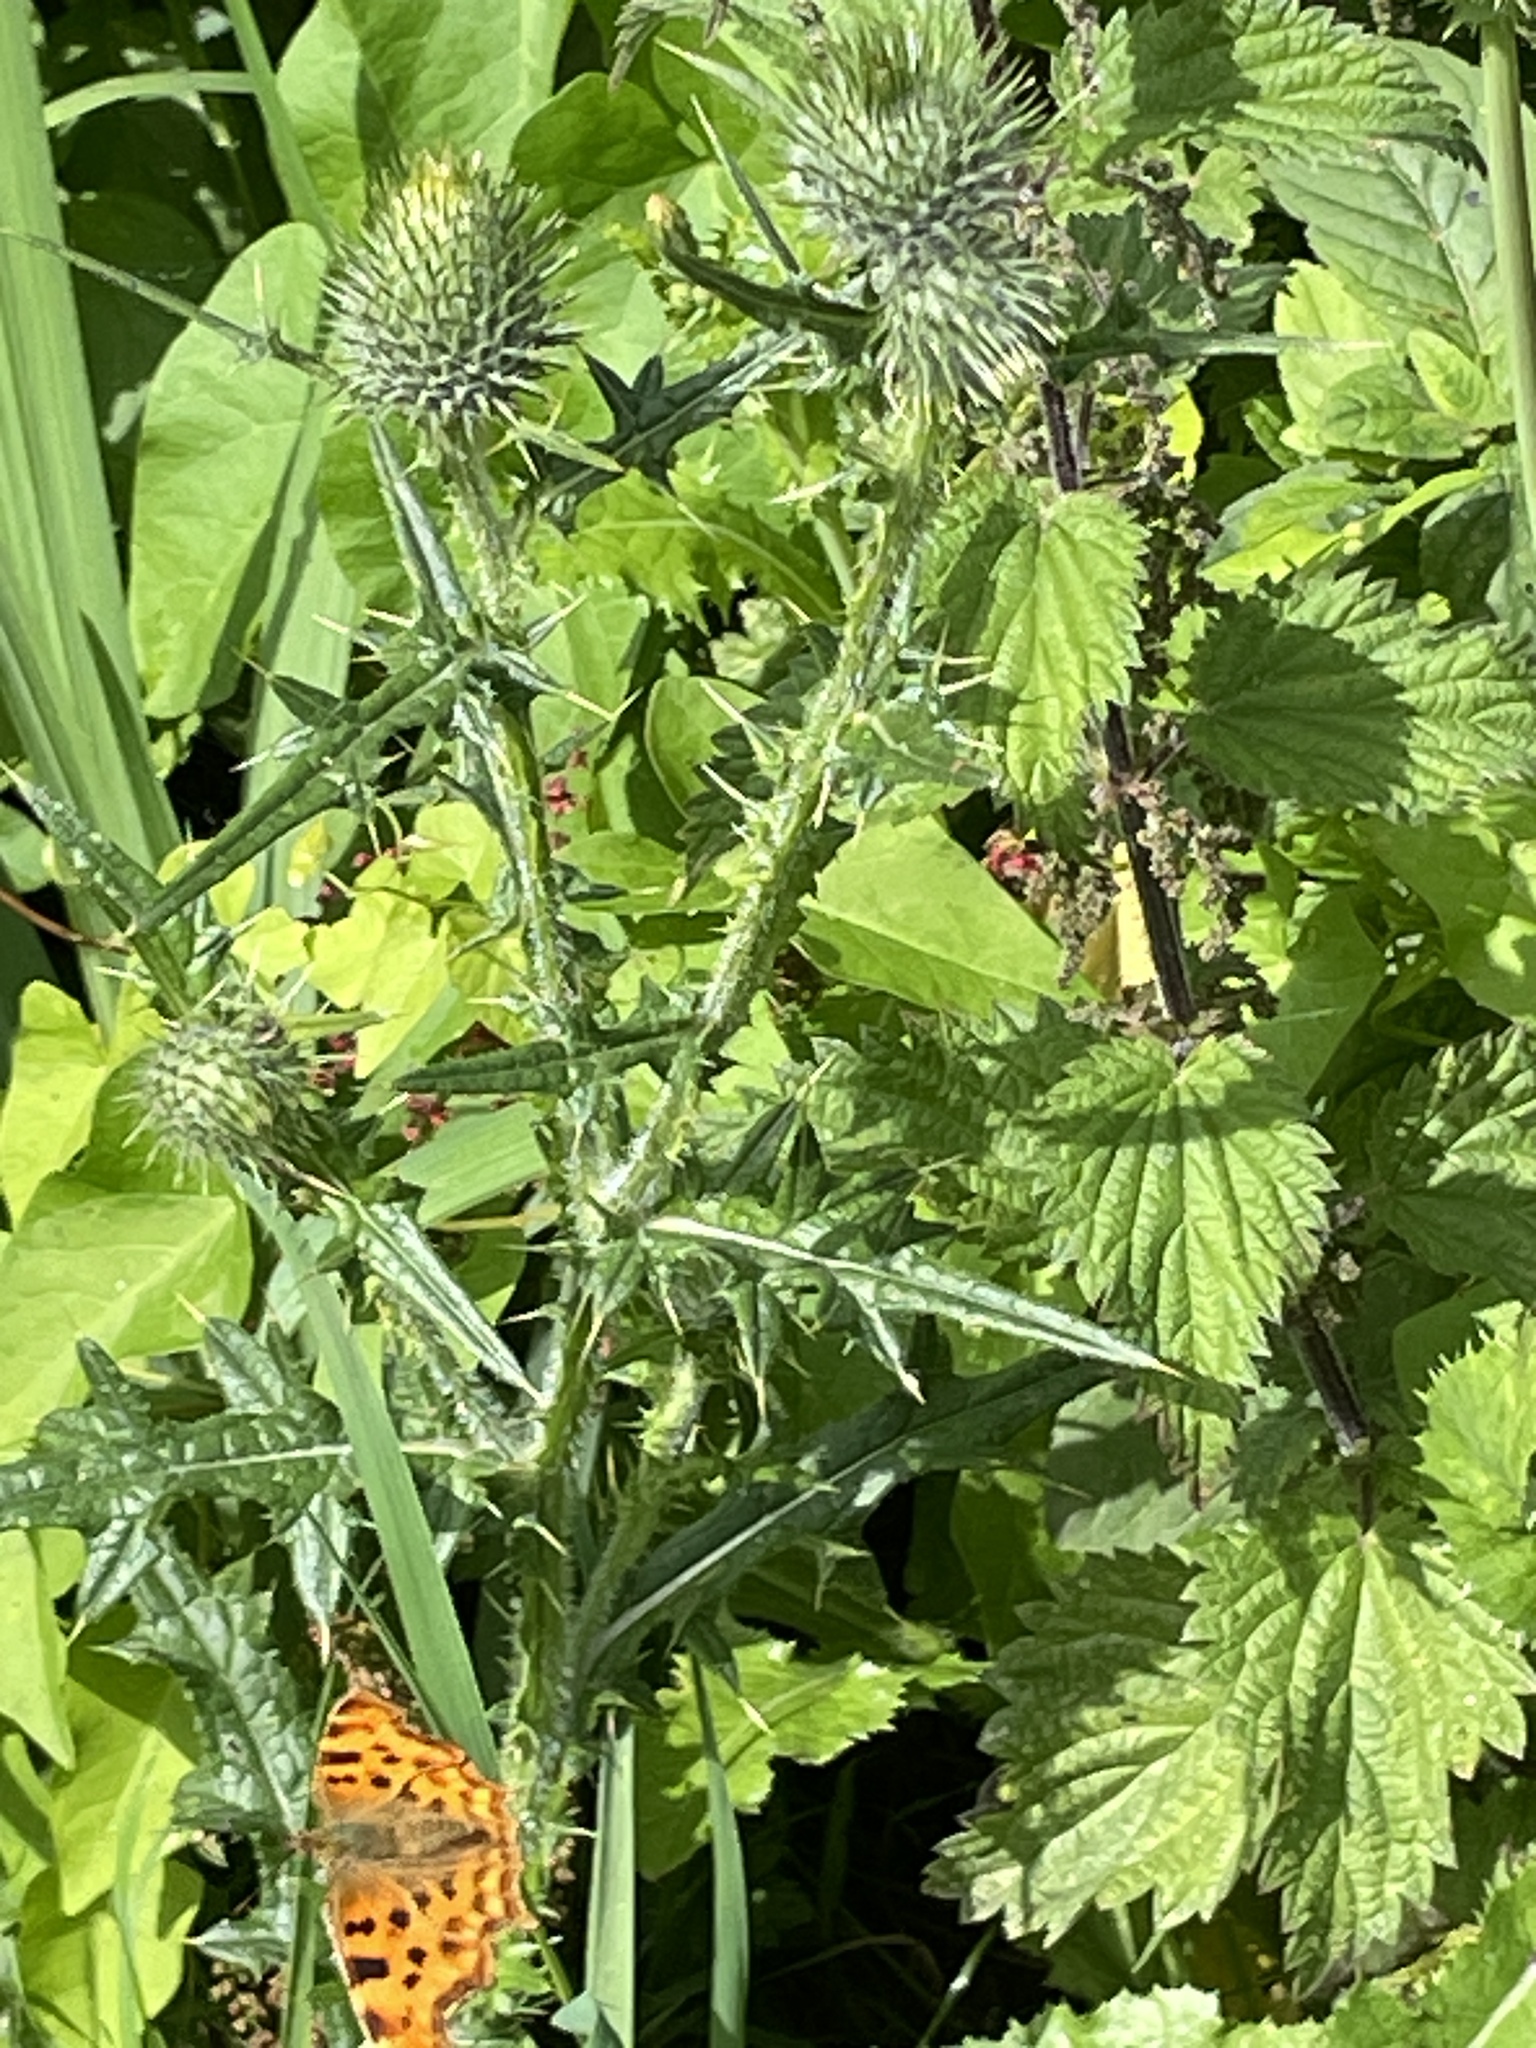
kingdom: Animalia
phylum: Arthropoda
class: Insecta
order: Lepidoptera
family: Nymphalidae
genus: Polygonia
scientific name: Polygonia c-album
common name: Comma
